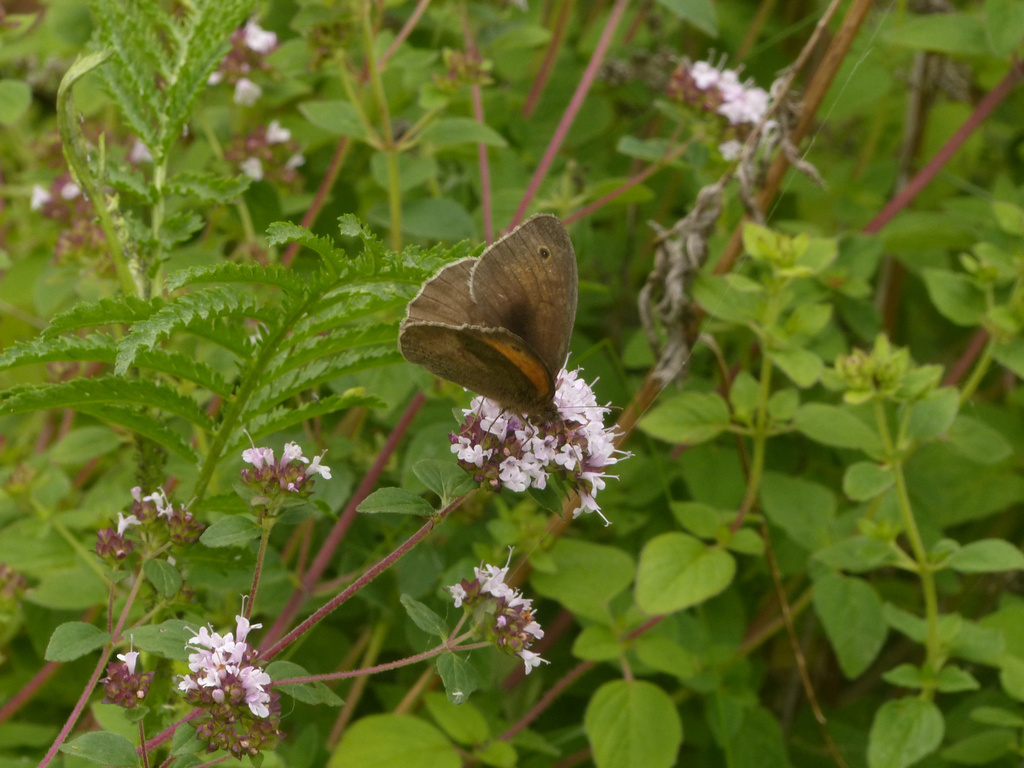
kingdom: Animalia
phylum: Arthropoda
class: Insecta
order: Lepidoptera
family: Nymphalidae
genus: Maniola
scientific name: Maniola jurtina
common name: Meadow brown
